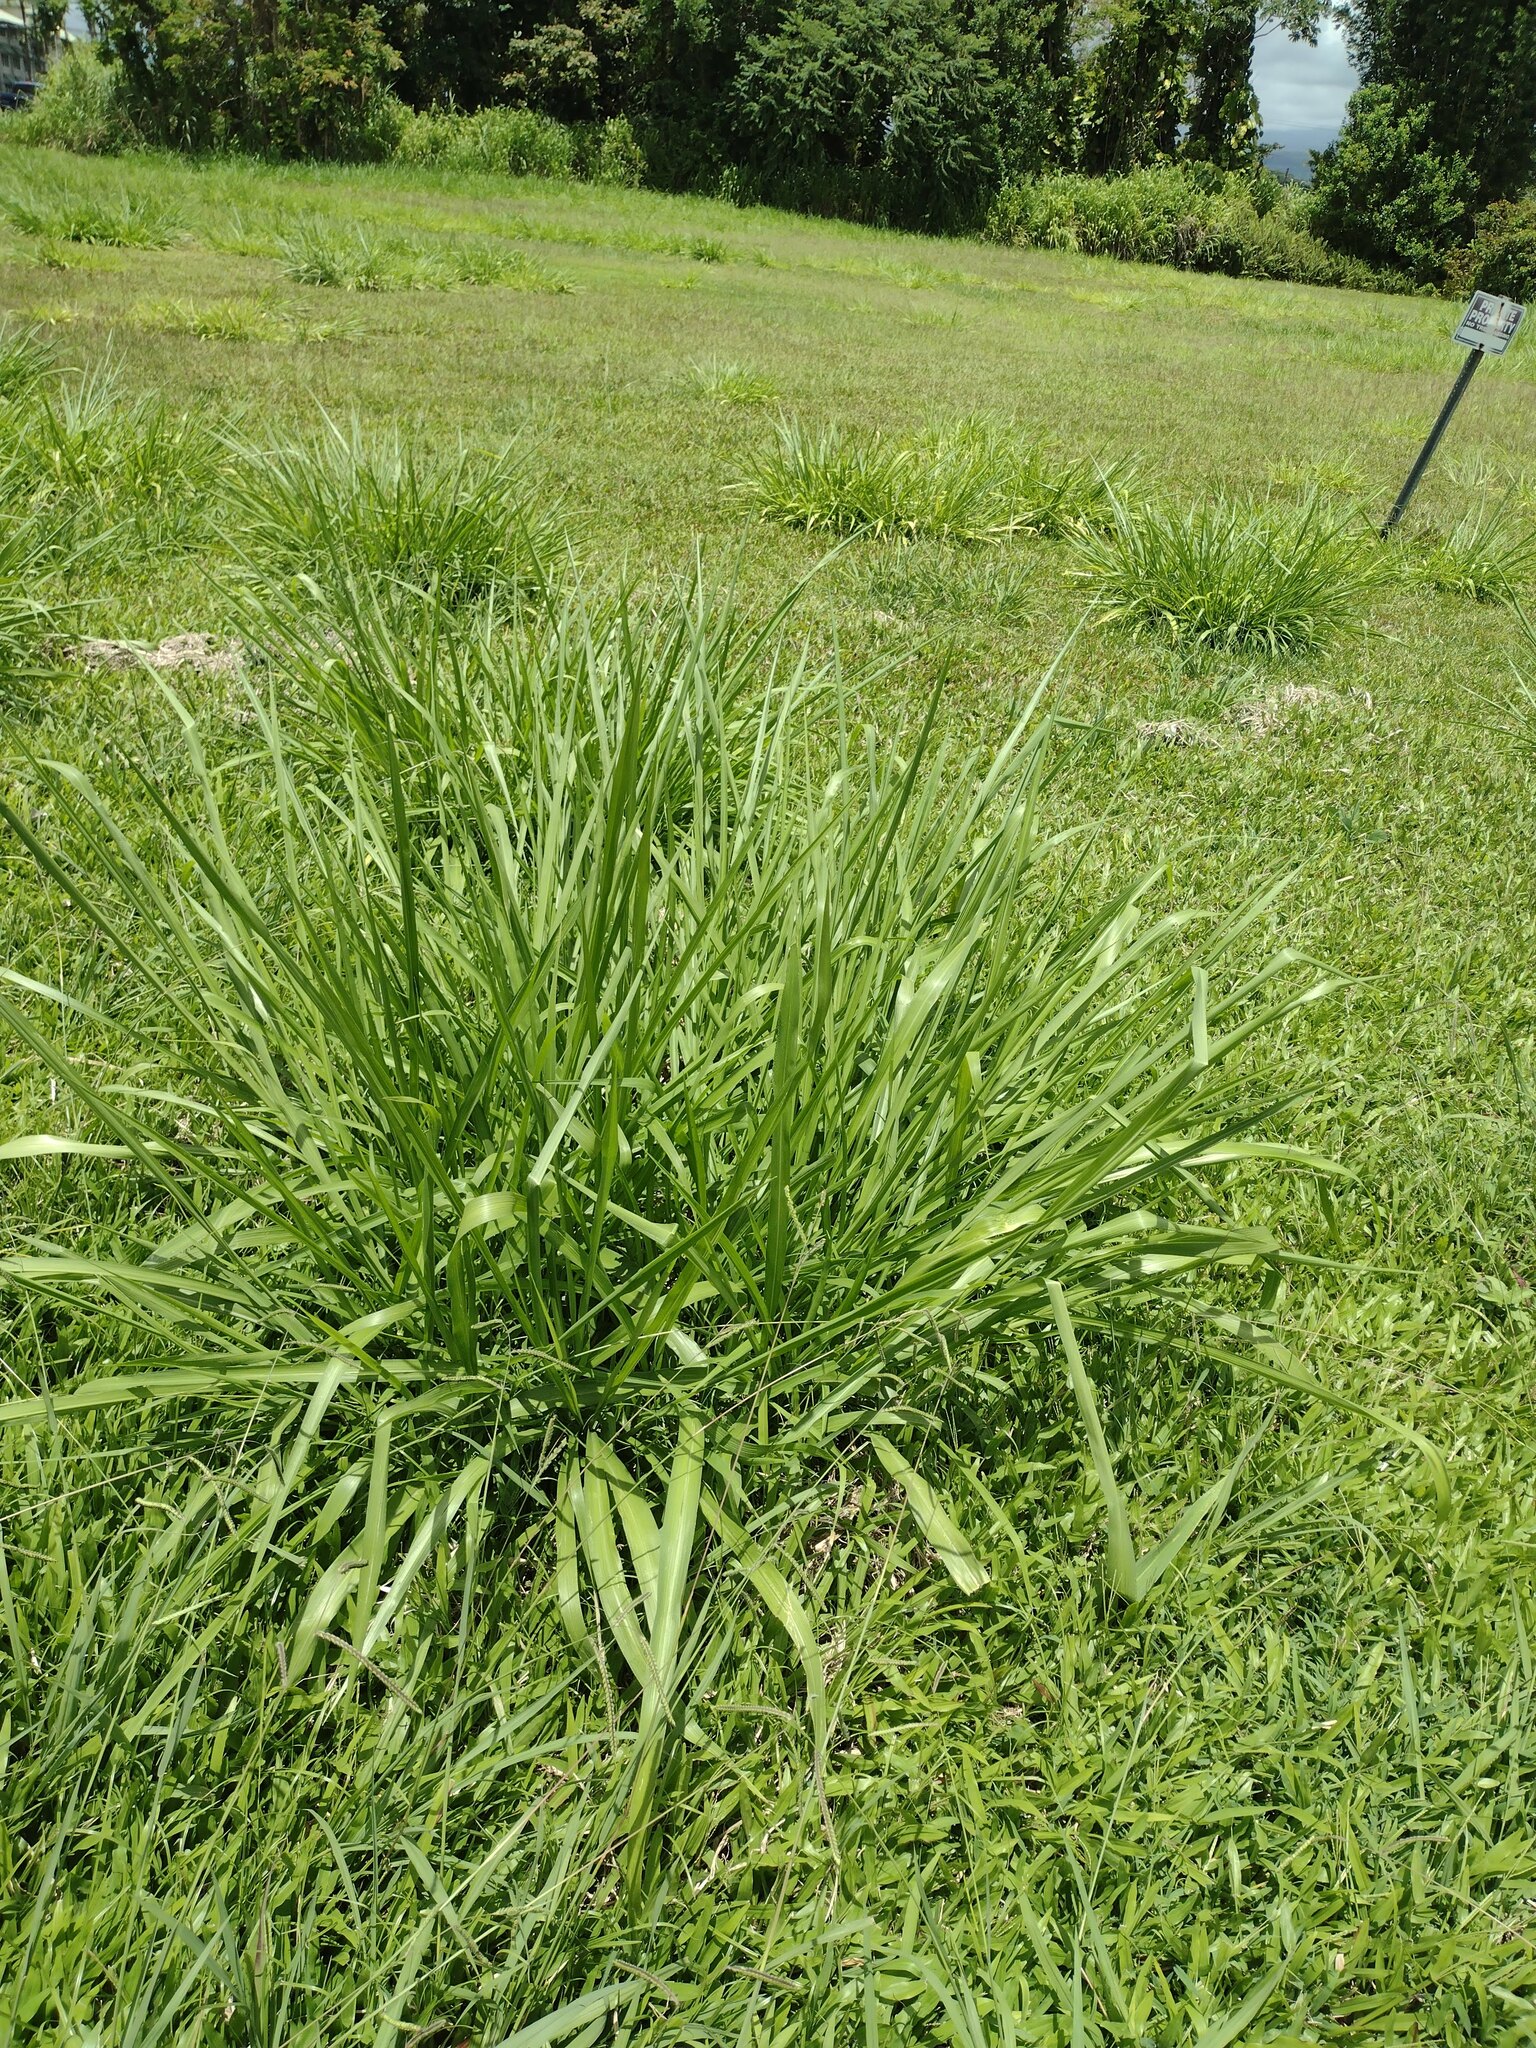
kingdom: Plantae
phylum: Tracheophyta
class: Liliopsida
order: Poales
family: Poaceae
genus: Megathyrsus
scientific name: Megathyrsus maximus
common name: Guineagrass
